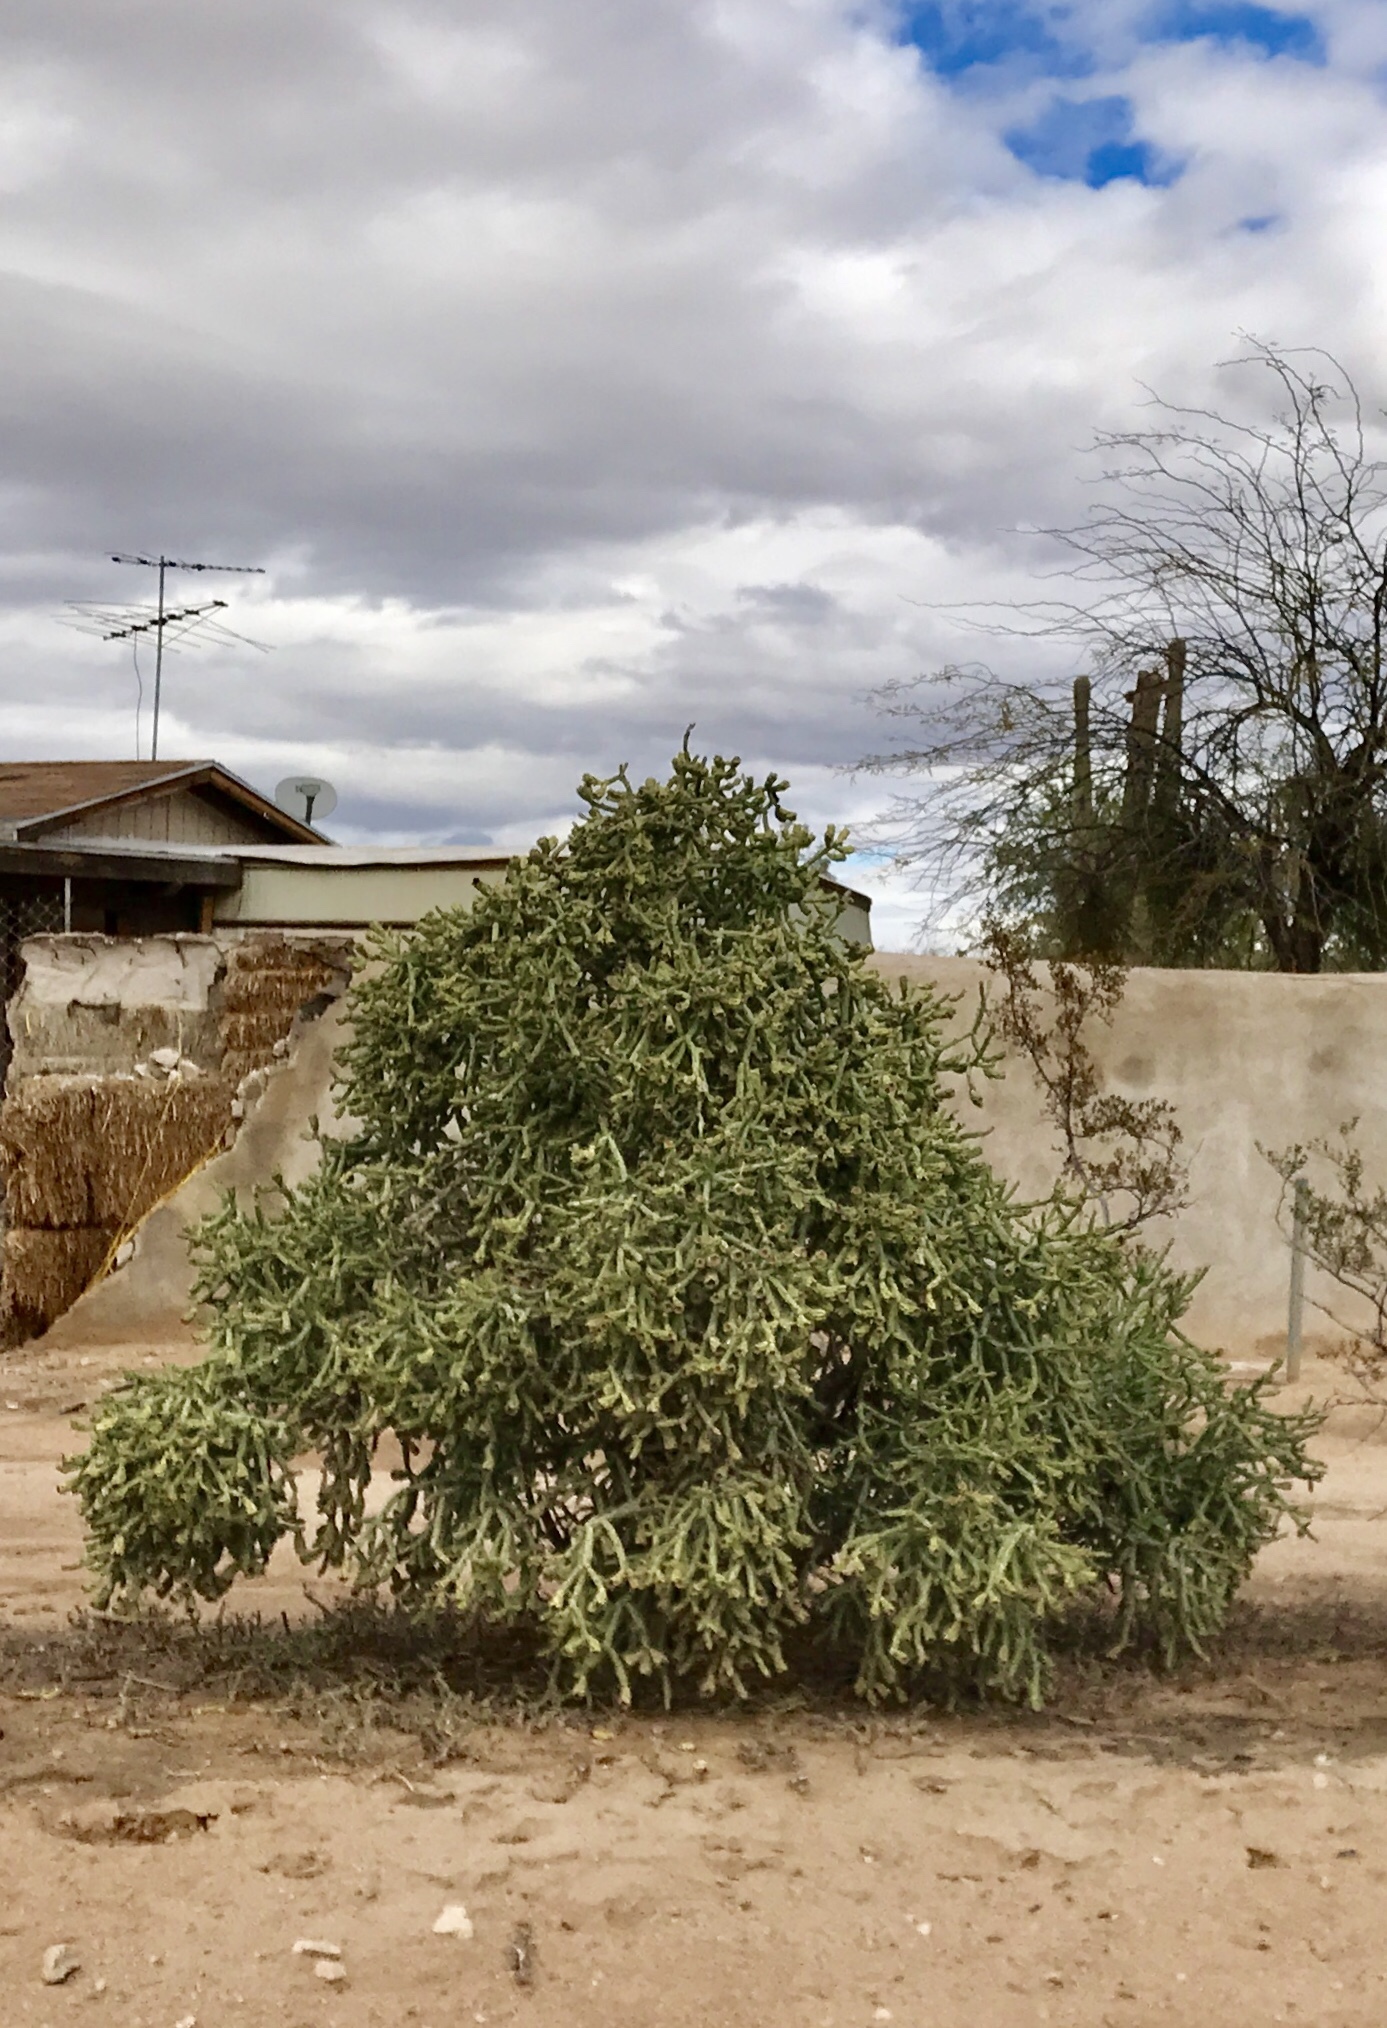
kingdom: Plantae
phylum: Tracheophyta
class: Magnoliopsida
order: Caryophyllales
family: Cactaceae
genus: Cylindropuntia
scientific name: Cylindropuntia arbuscula
